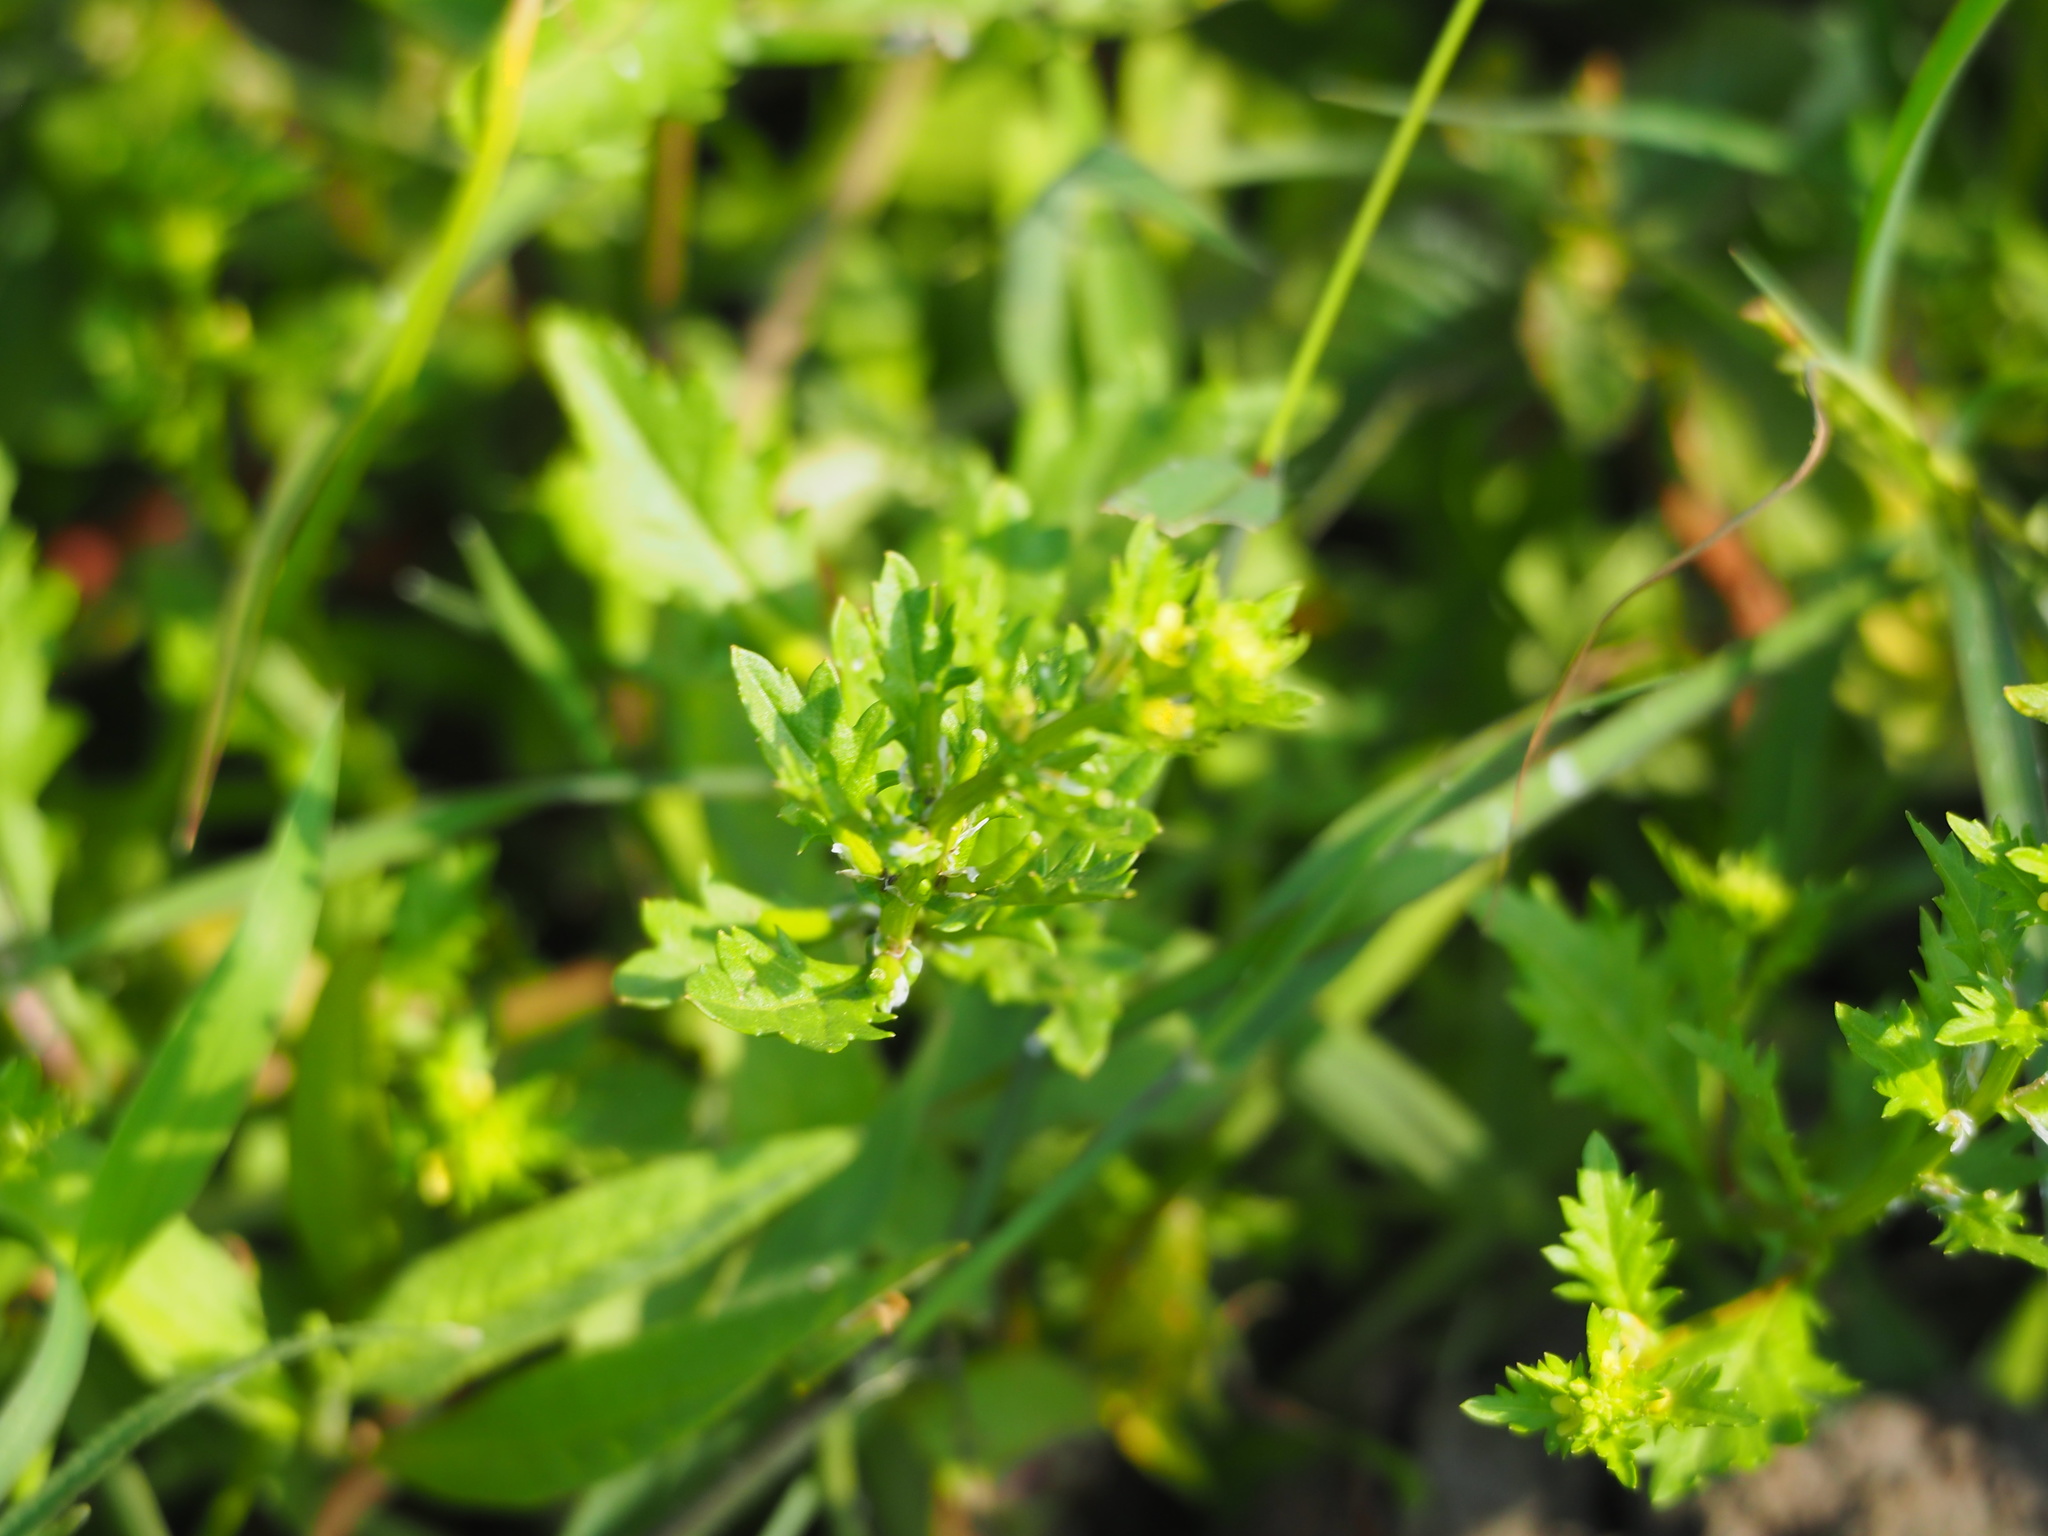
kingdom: Plantae
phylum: Tracheophyta
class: Magnoliopsida
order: Brassicales
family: Brassicaceae
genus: Rorippa
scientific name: Rorippa cantoniensis
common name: Chinese yellowcress
